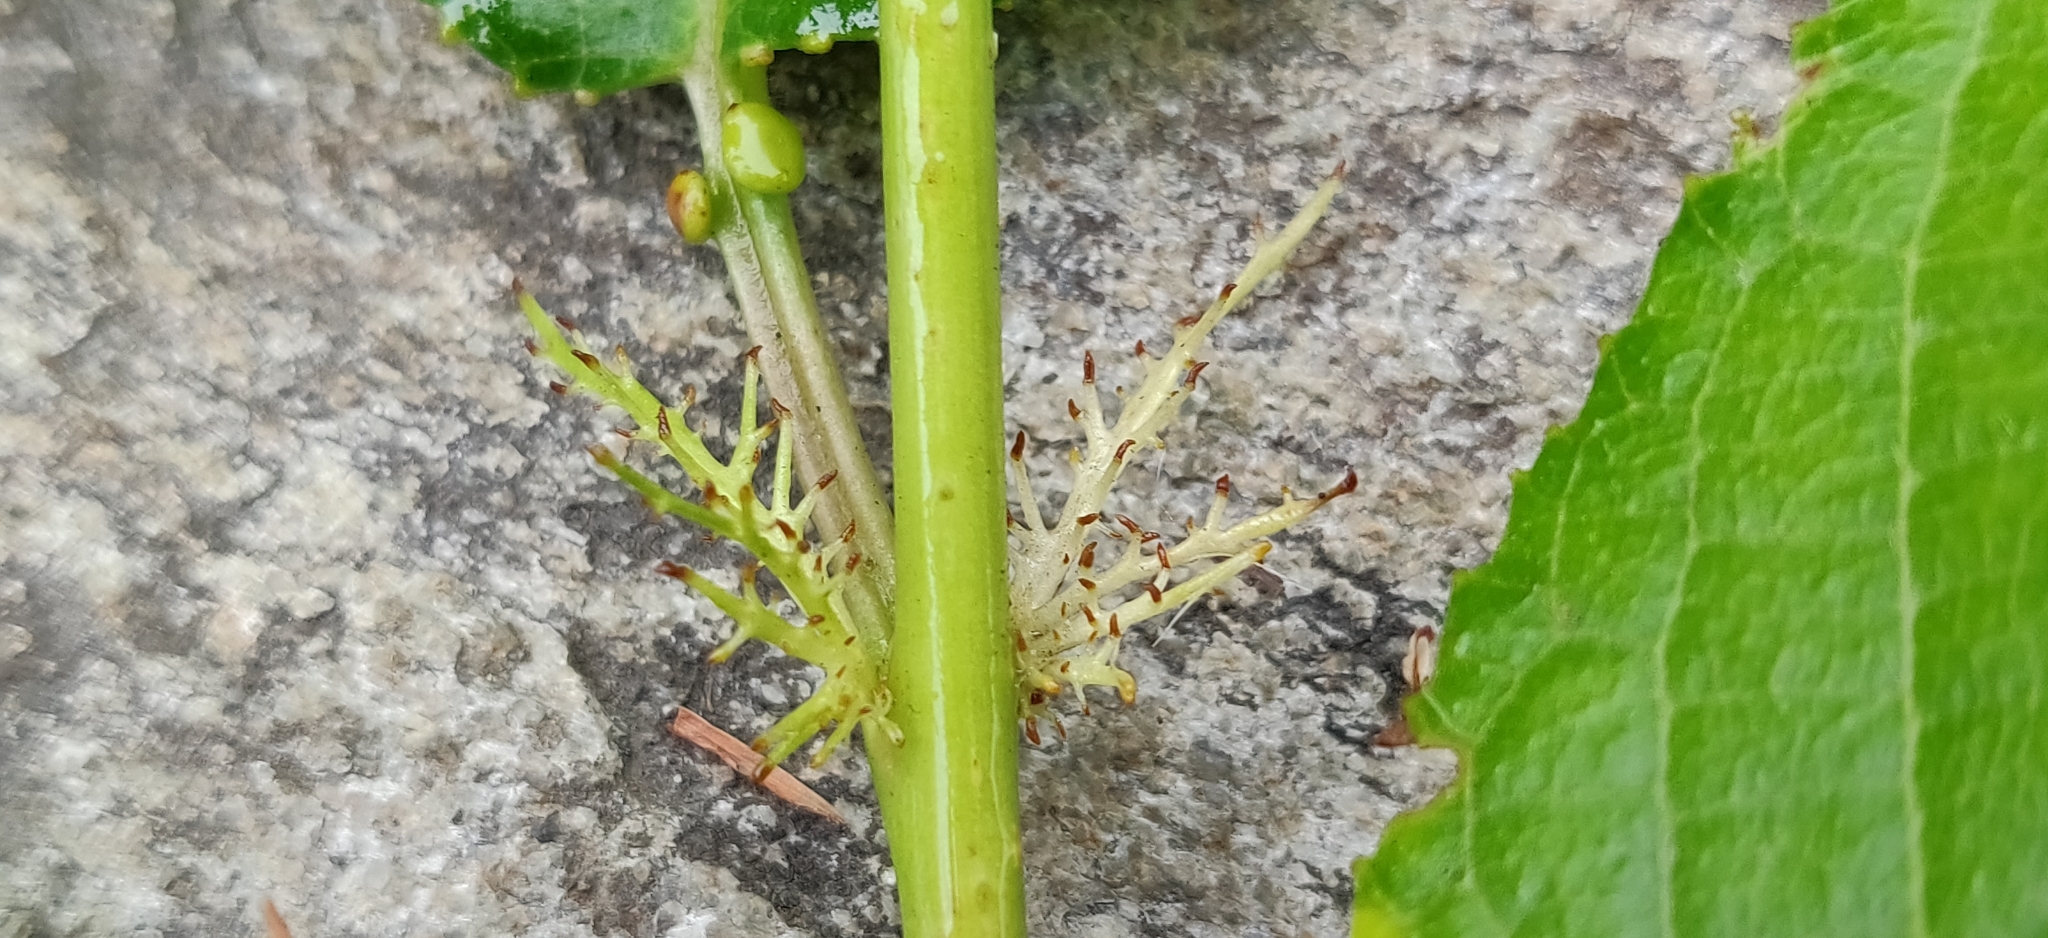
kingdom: Plantae
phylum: Tracheophyta
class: Magnoliopsida
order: Rosales
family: Rosaceae
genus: Prunus
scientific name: Prunus cerasoides
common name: Wild himalayan cherry
